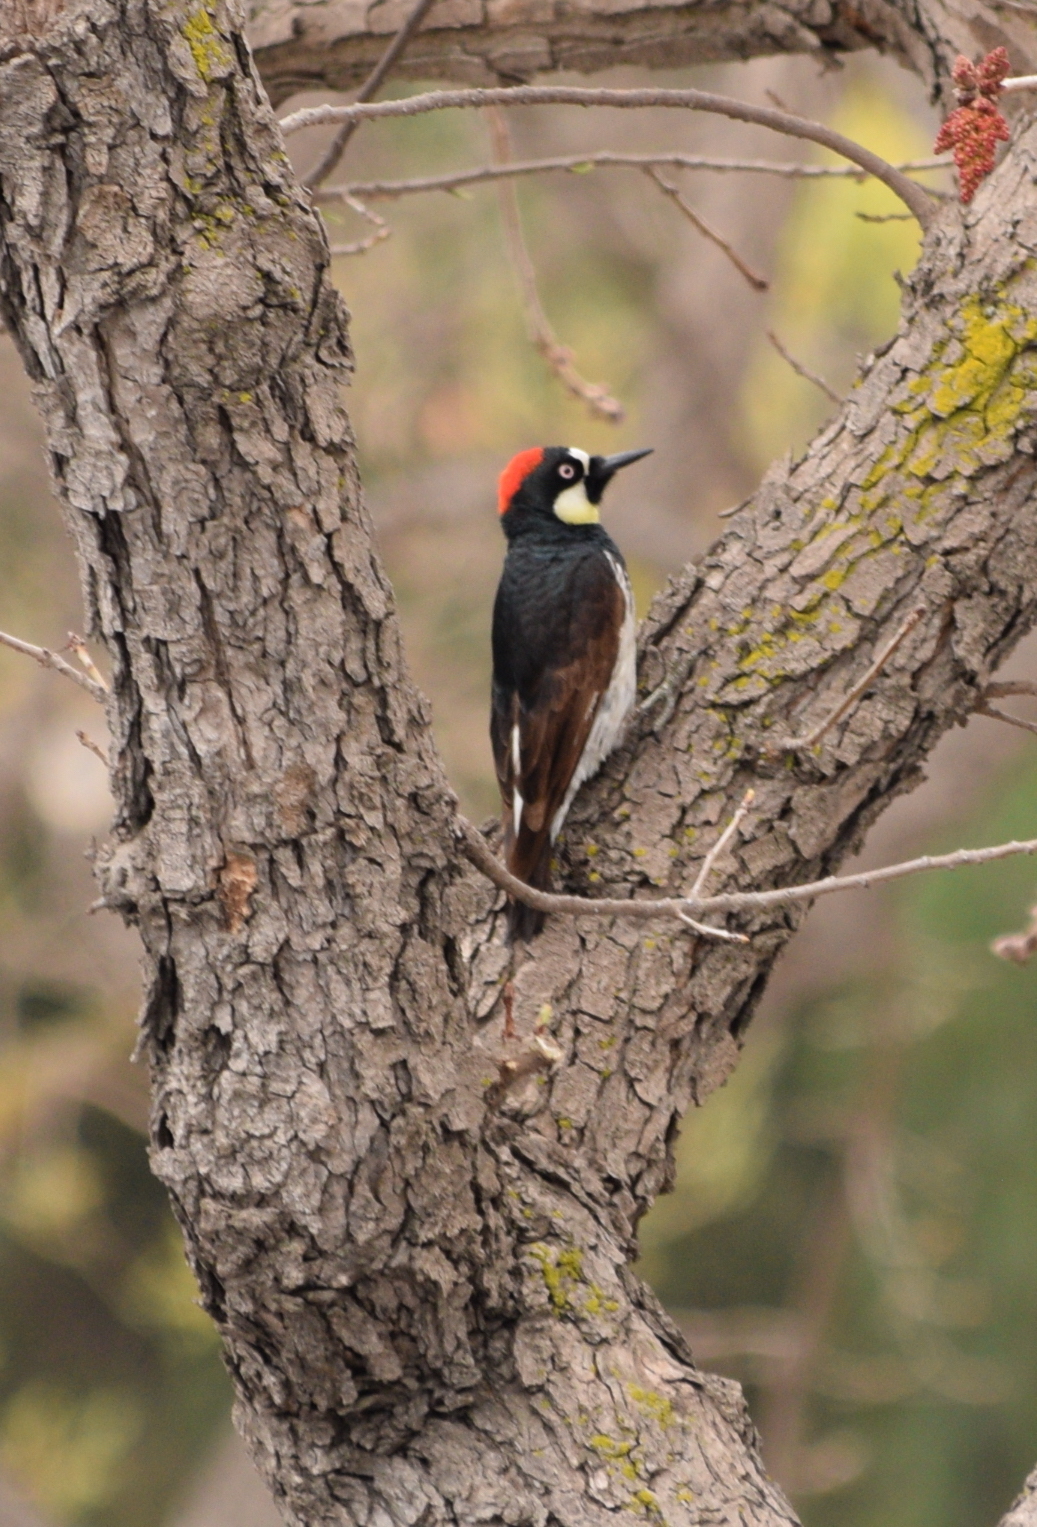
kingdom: Animalia
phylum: Chordata
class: Aves
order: Piciformes
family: Picidae
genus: Melanerpes
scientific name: Melanerpes formicivorus
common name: Acorn woodpecker
